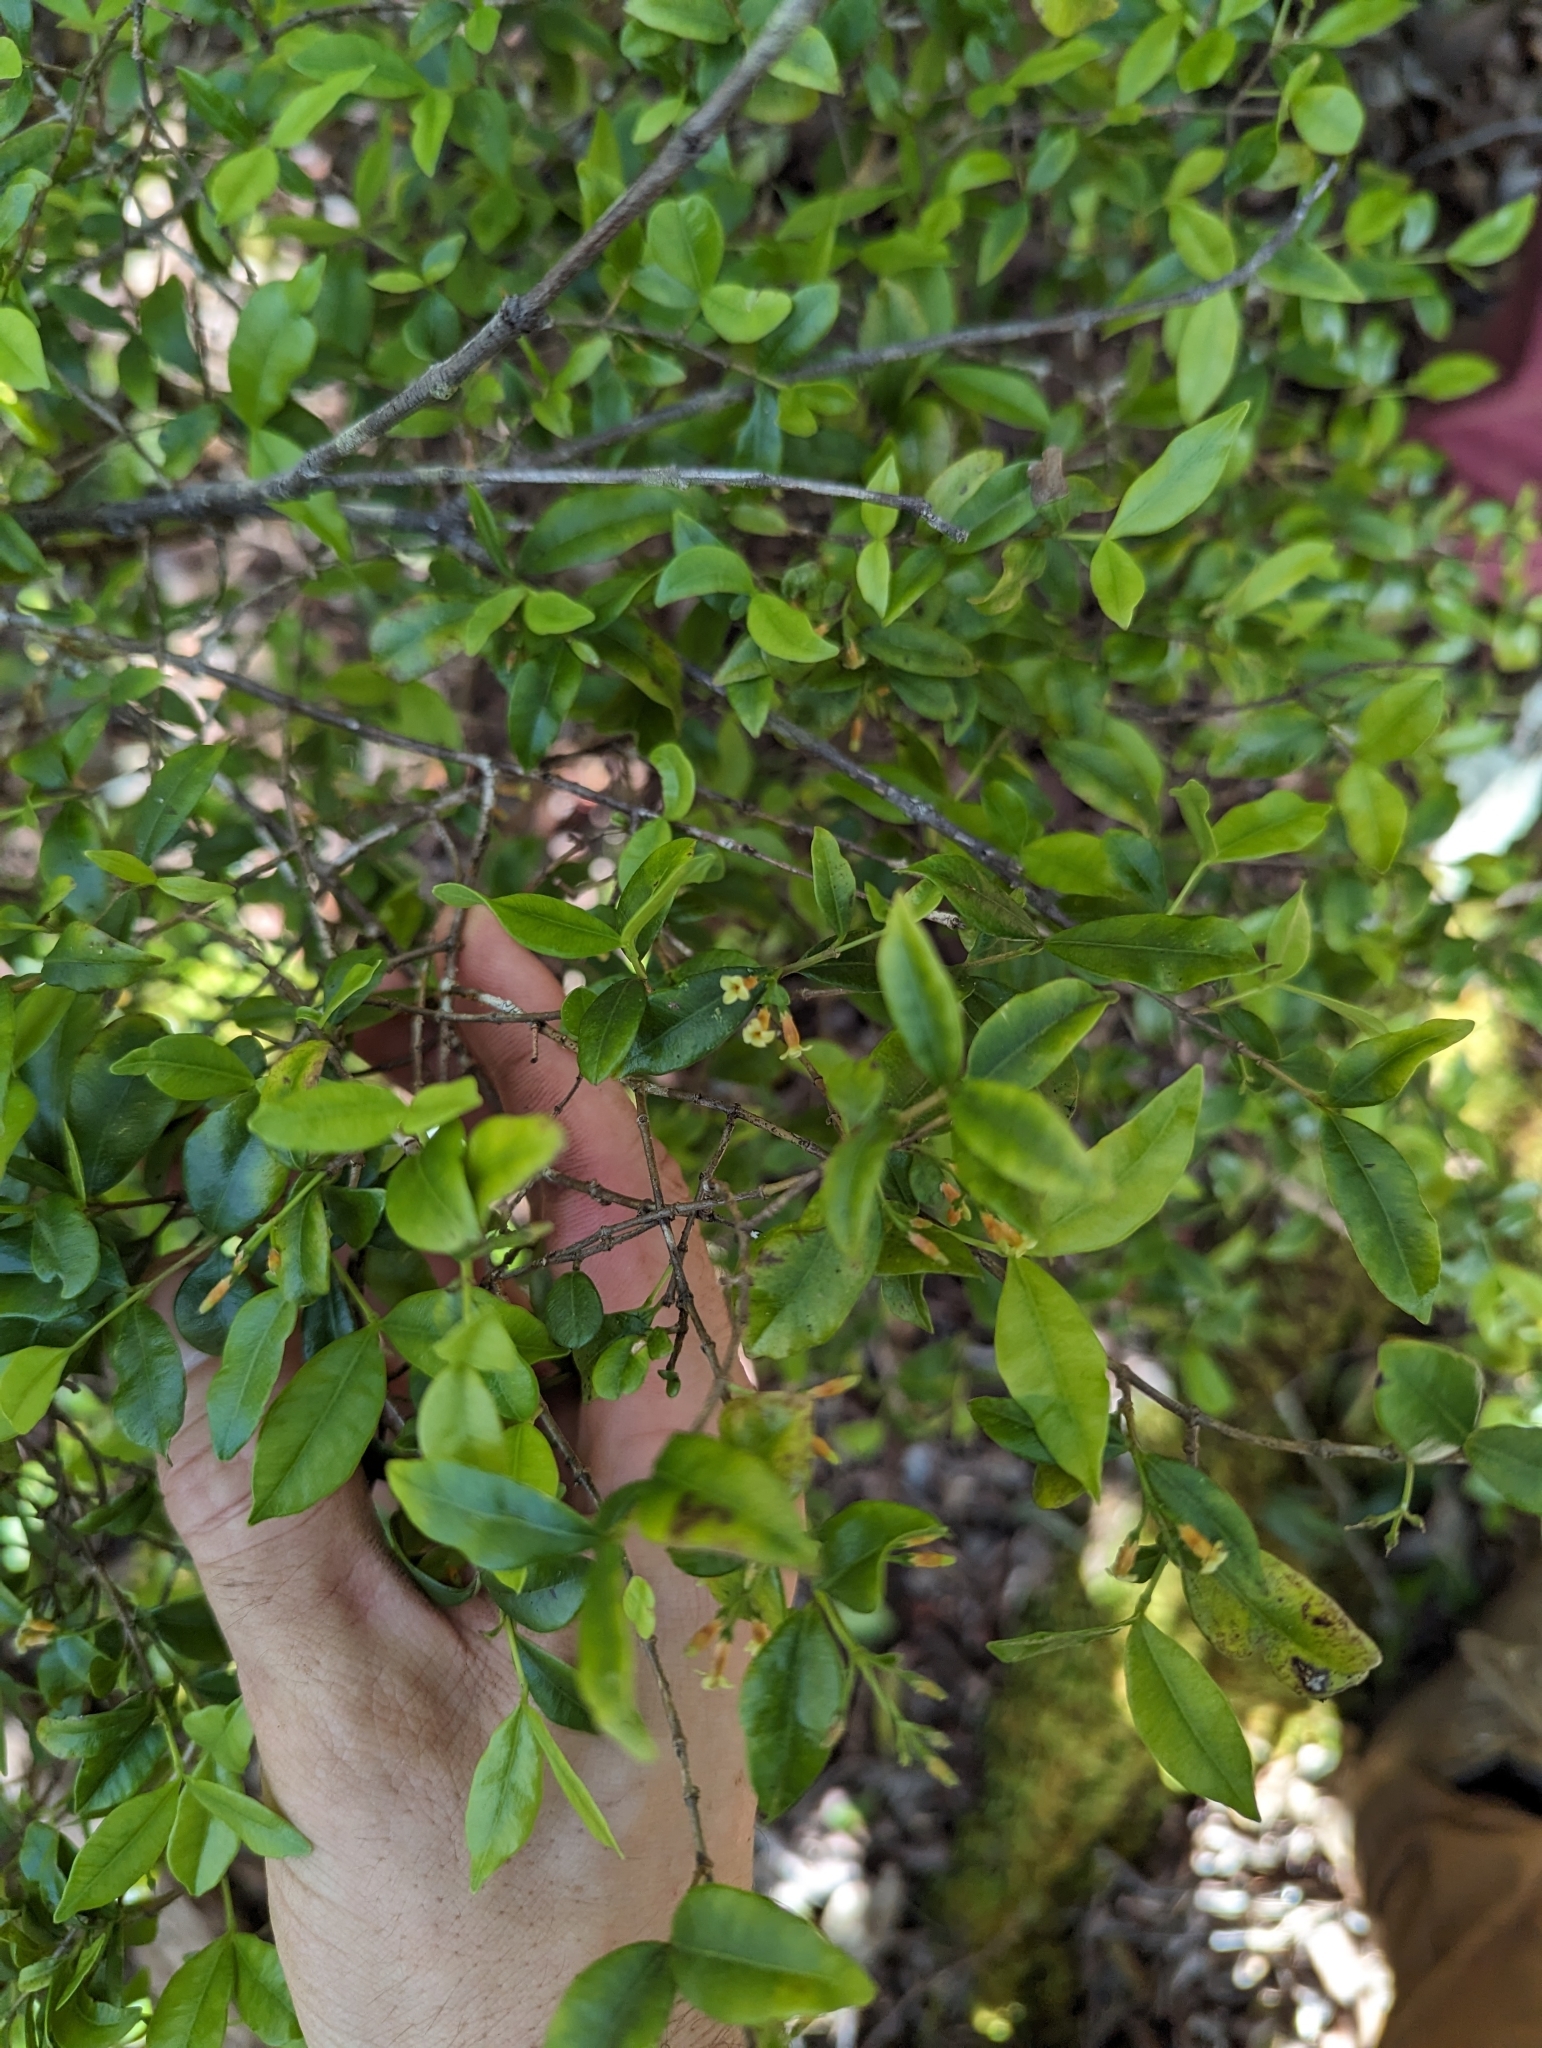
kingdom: Plantae
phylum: Tracheophyta
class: Magnoliopsida
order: Gentianales
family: Apocynaceae
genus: Alyxia
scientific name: Alyxia stellata
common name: Maile
